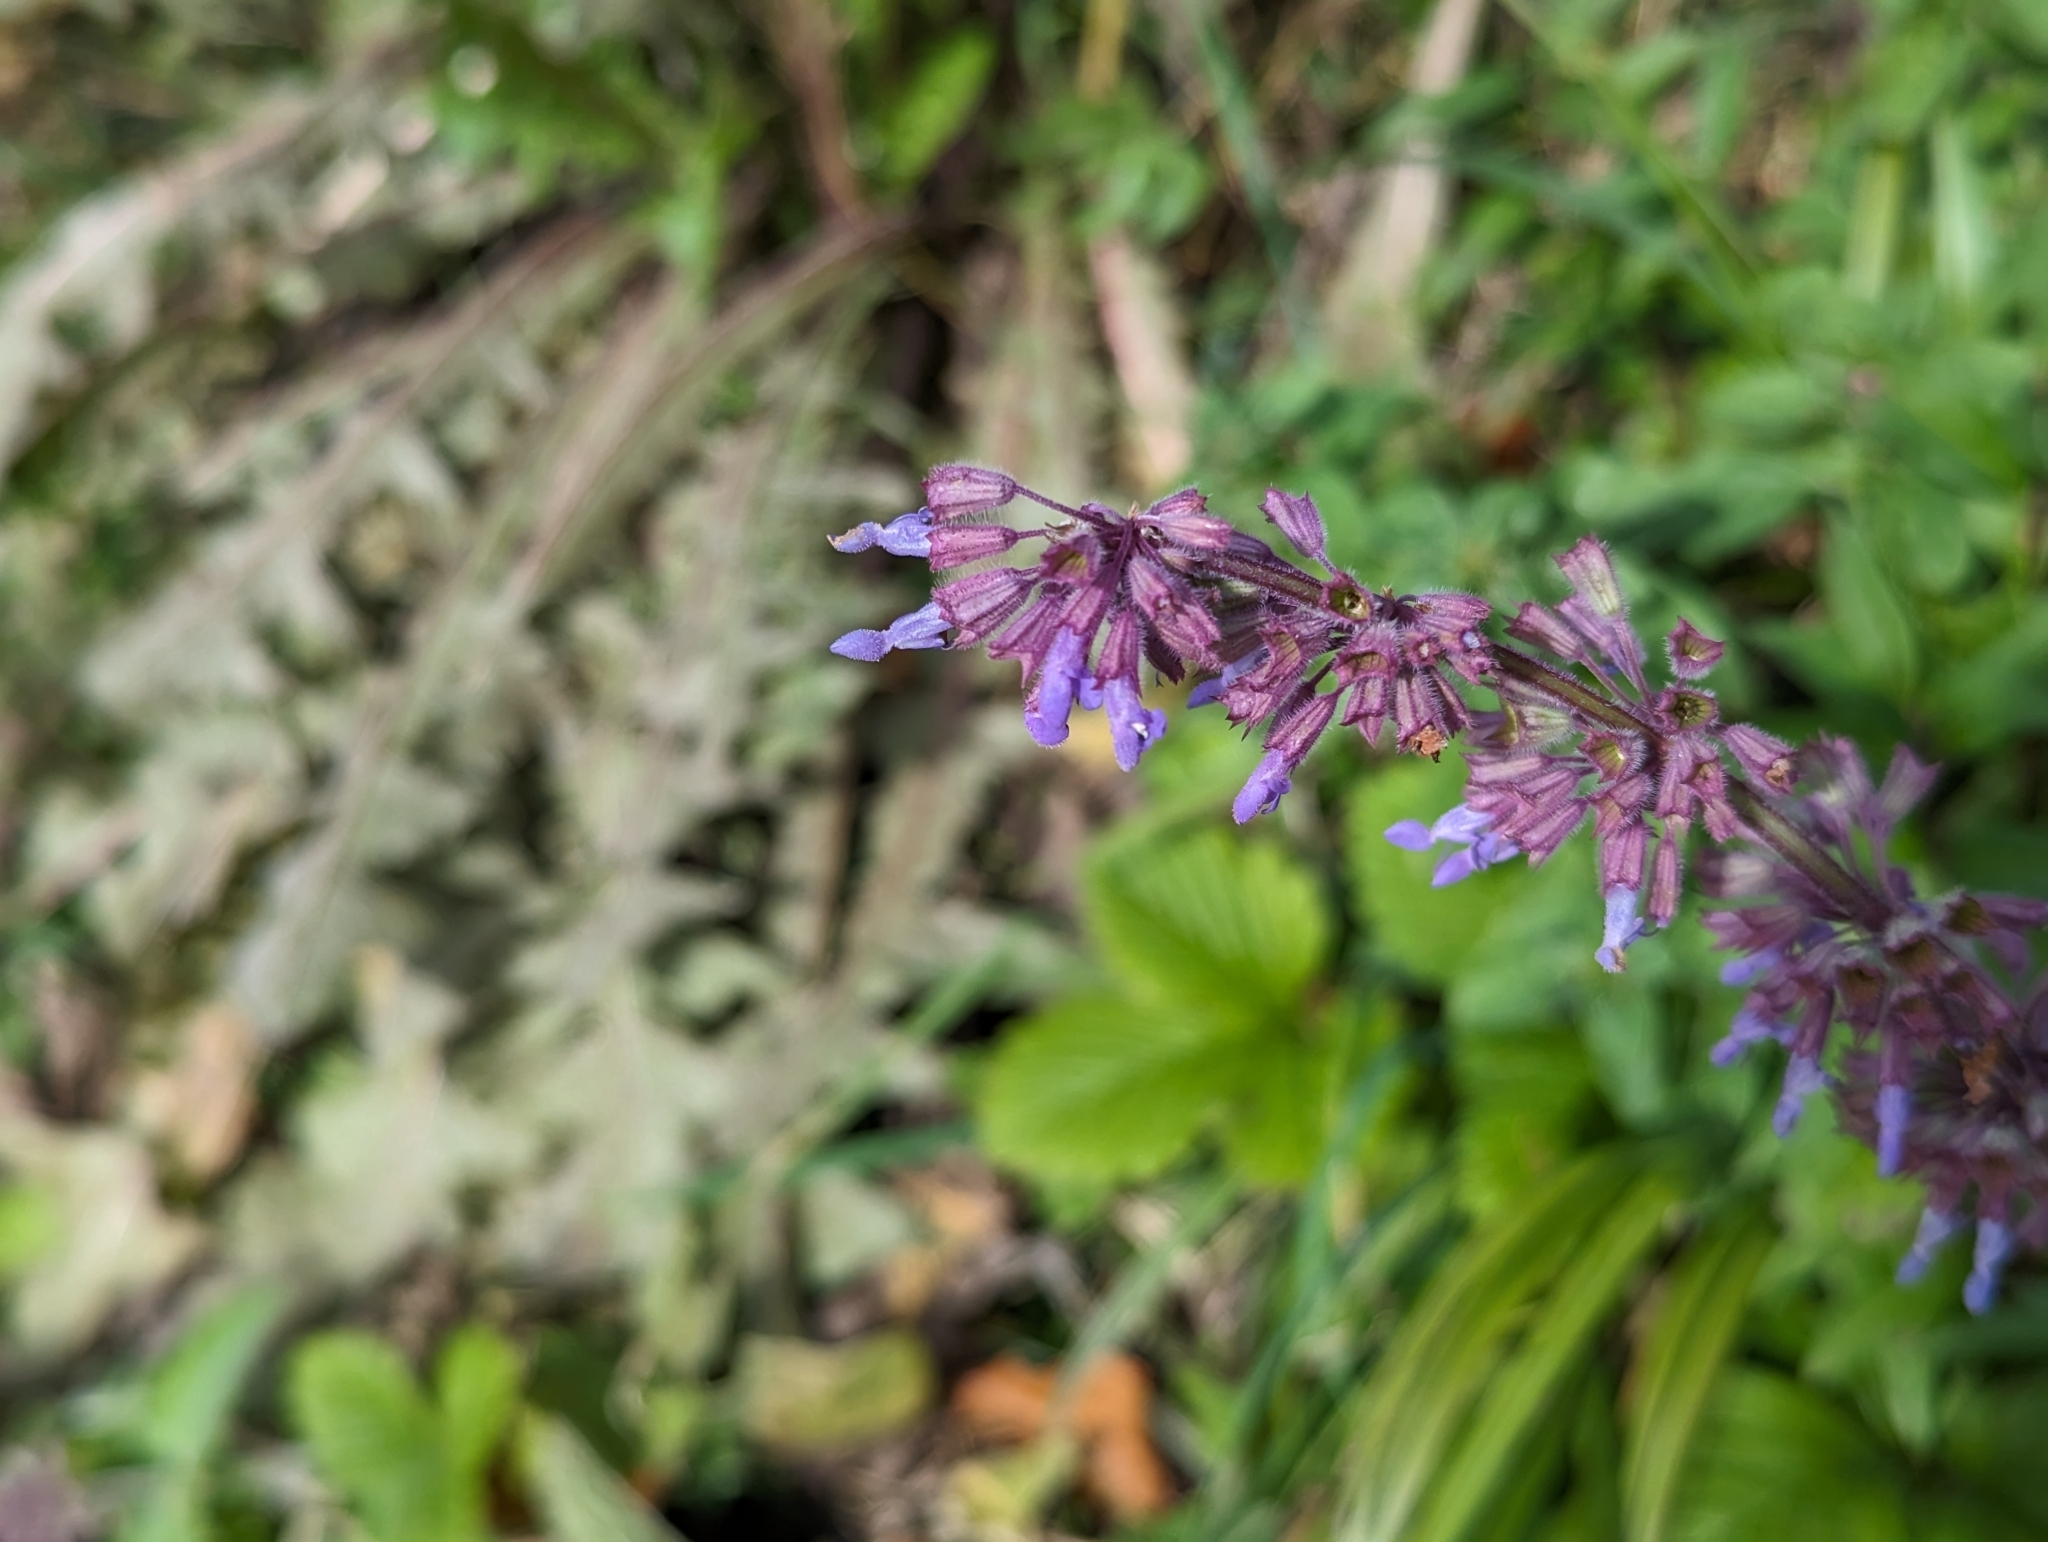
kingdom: Plantae
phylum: Tracheophyta
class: Magnoliopsida
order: Lamiales
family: Lamiaceae
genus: Salvia
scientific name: Salvia verticillata
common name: Whorled clary
